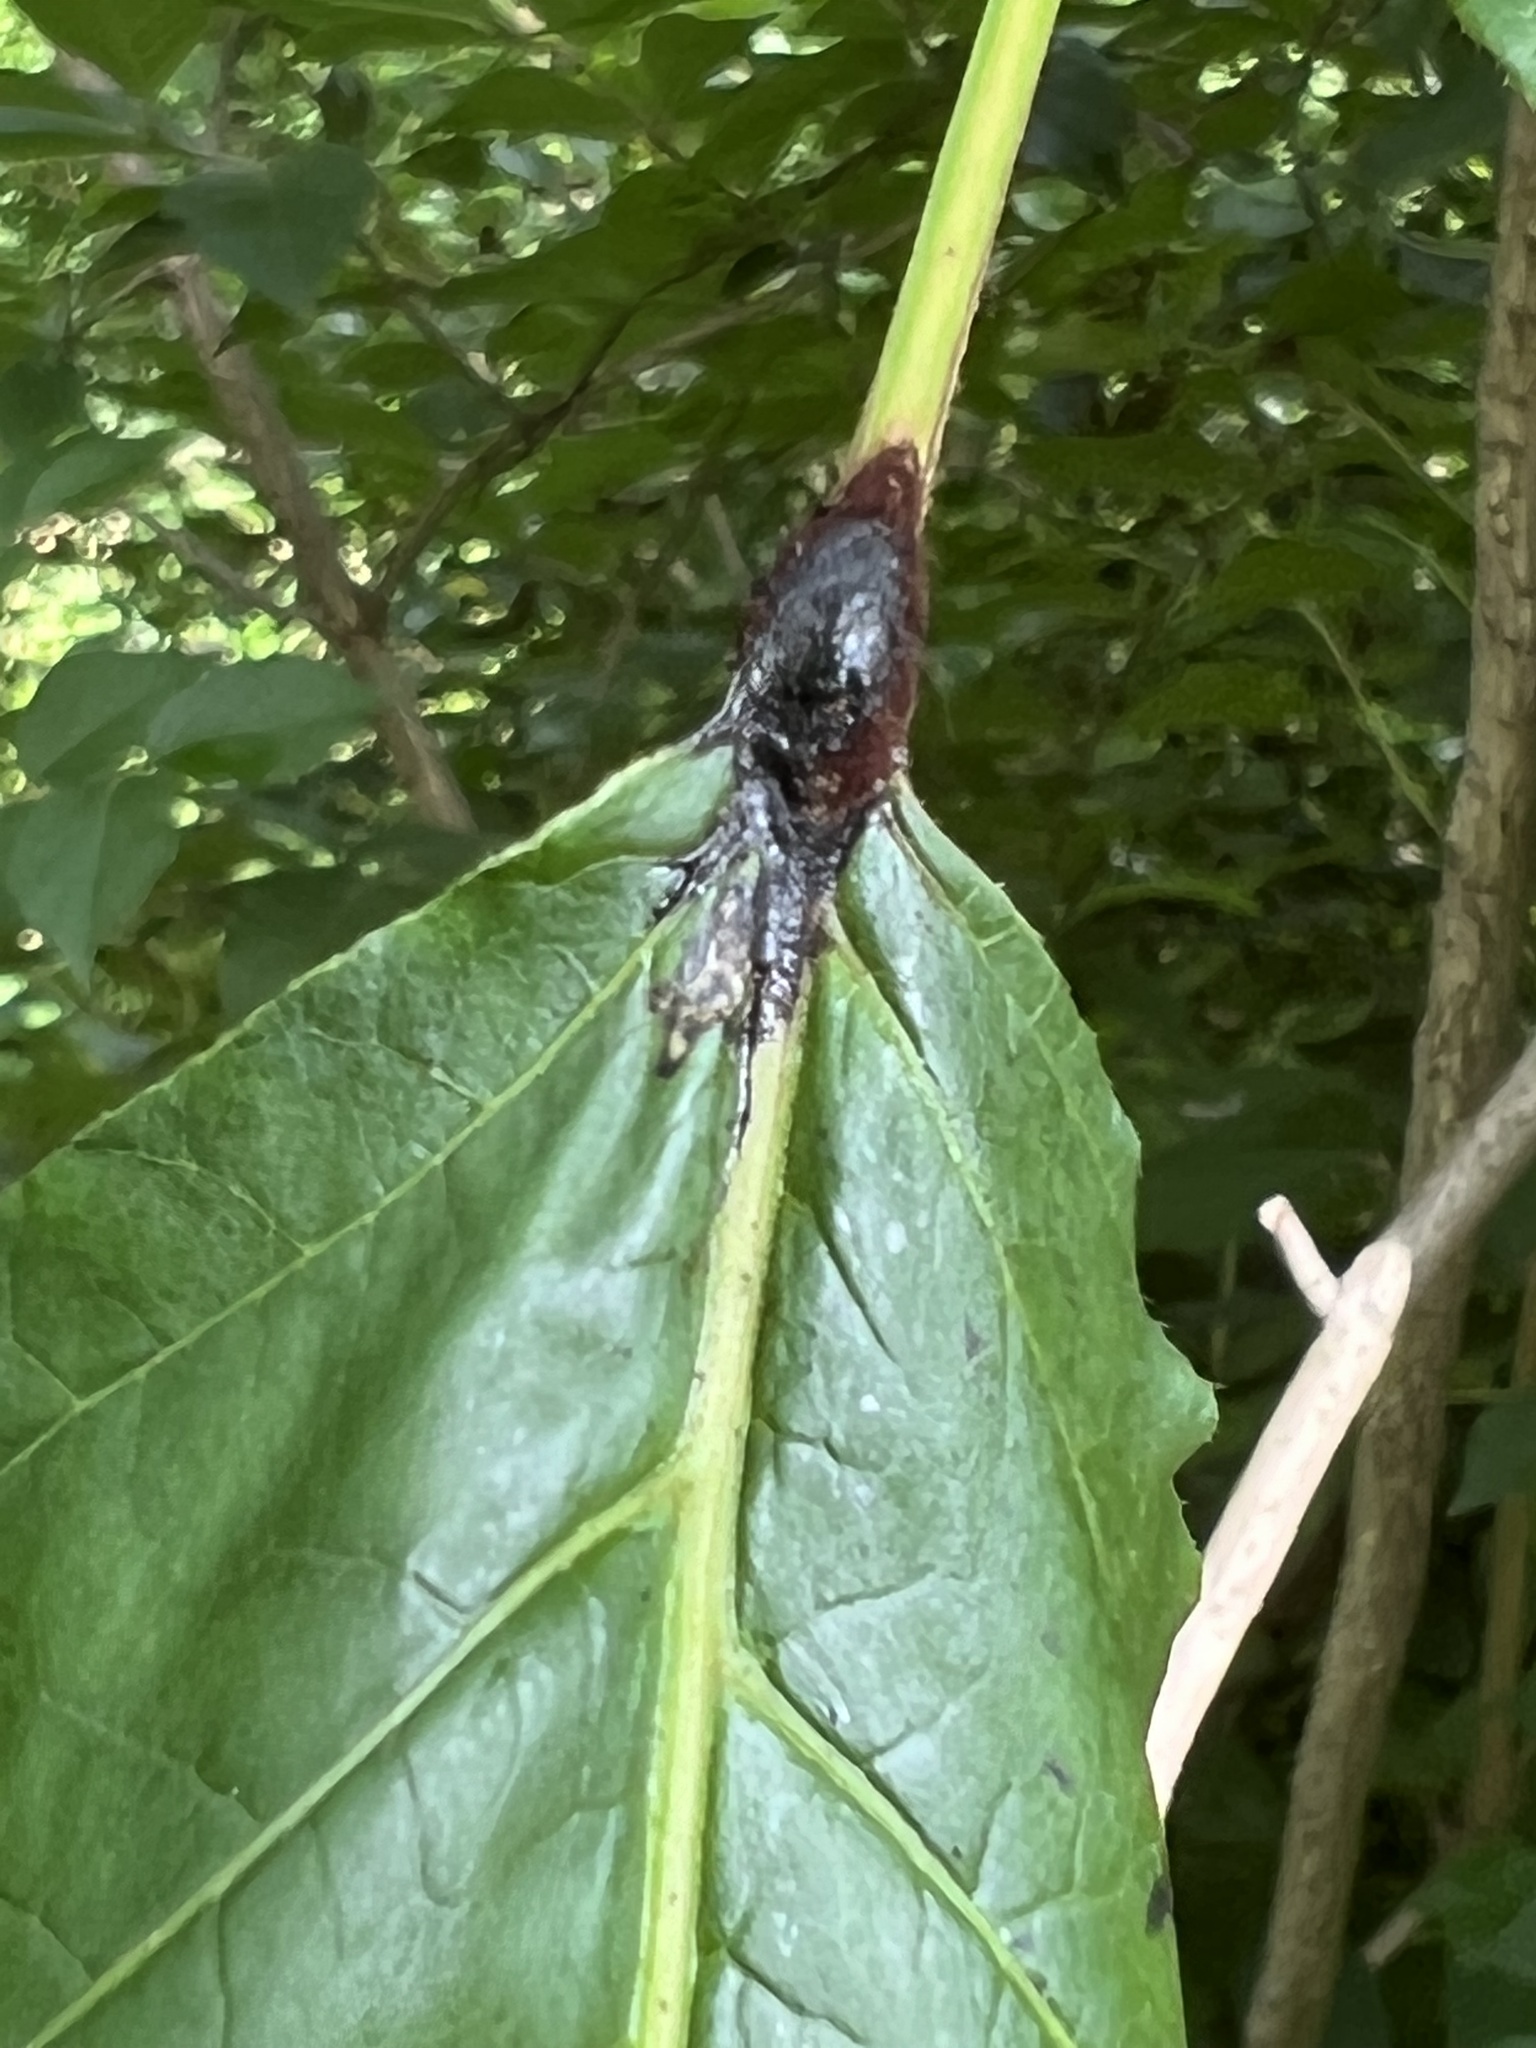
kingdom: Fungi
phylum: Basidiomycota
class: Pucciniomycetes
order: Pucciniales
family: Pileolariaceae
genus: Pileolaria
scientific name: Pileolaria brevipes
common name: Poison ivy rust
